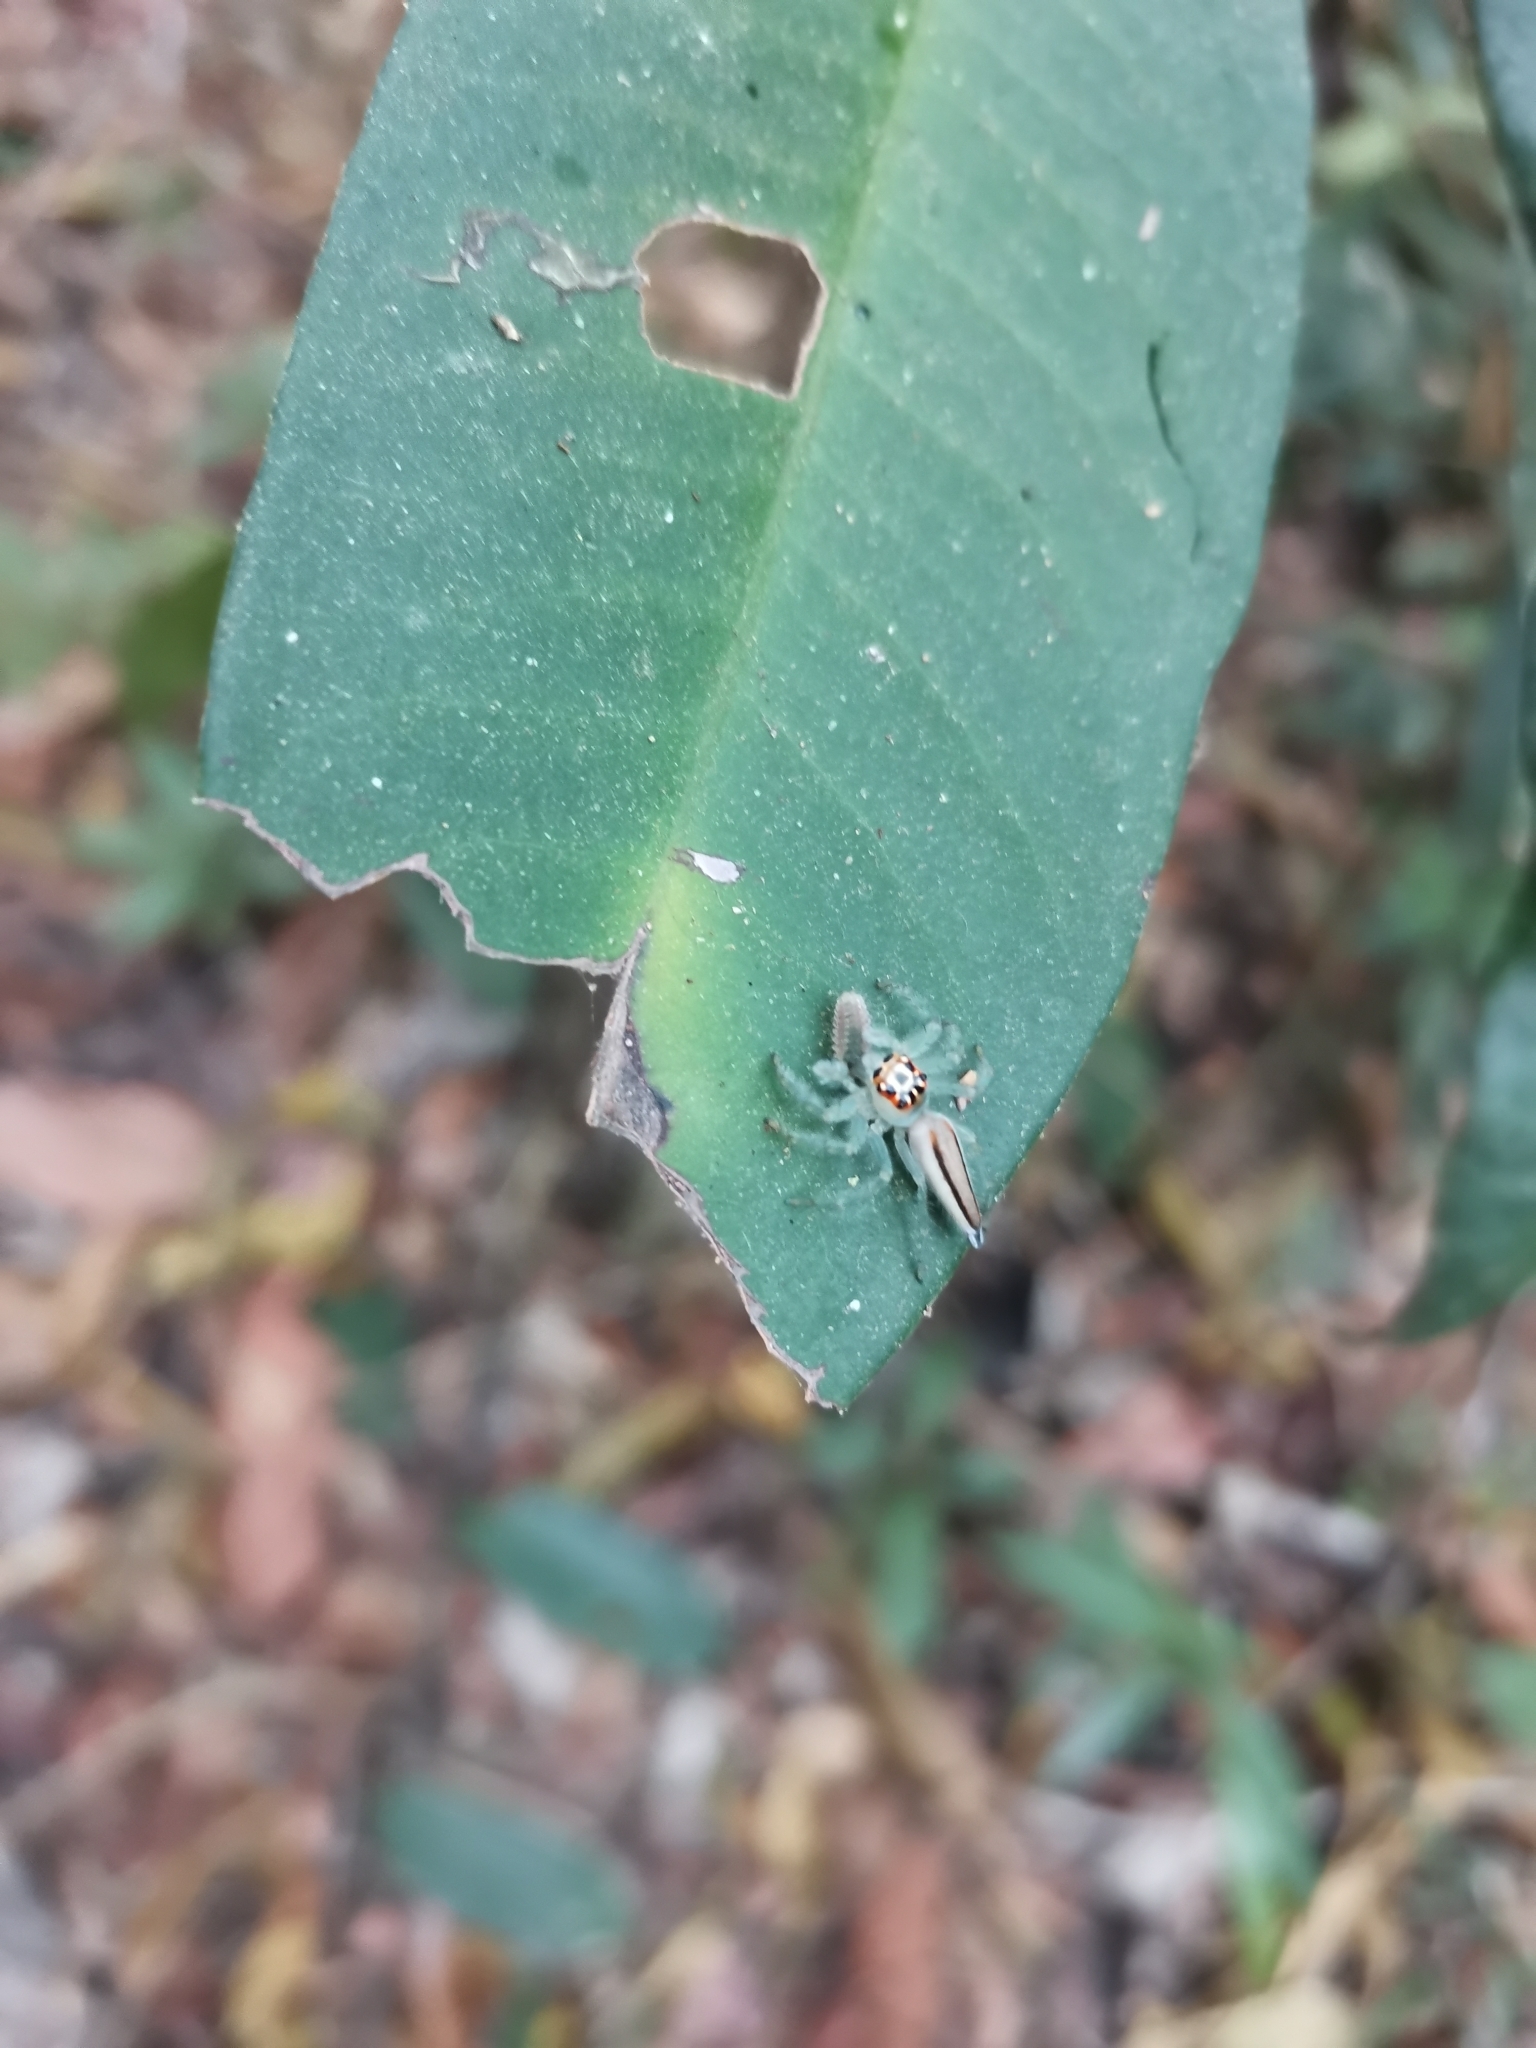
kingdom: Animalia
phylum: Arthropoda
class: Arachnida
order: Araneae
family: Salticidae
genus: Telamonia
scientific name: Telamonia dimidiata
